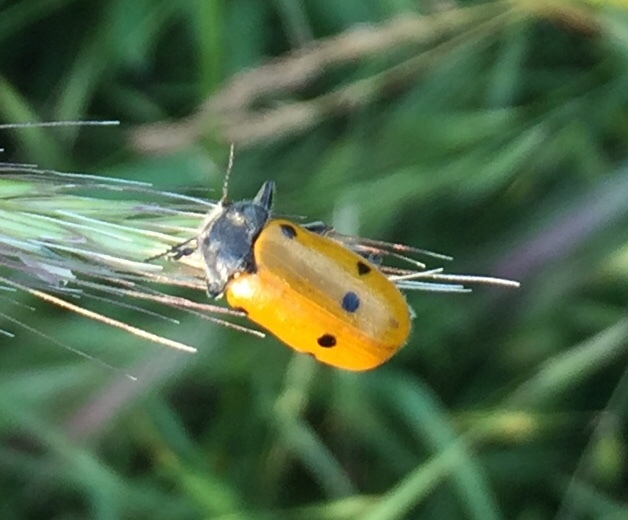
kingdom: Animalia
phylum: Arthropoda
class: Insecta
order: Coleoptera
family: Chrysomelidae
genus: Lachnaia
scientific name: Lachnaia sexpunctata
